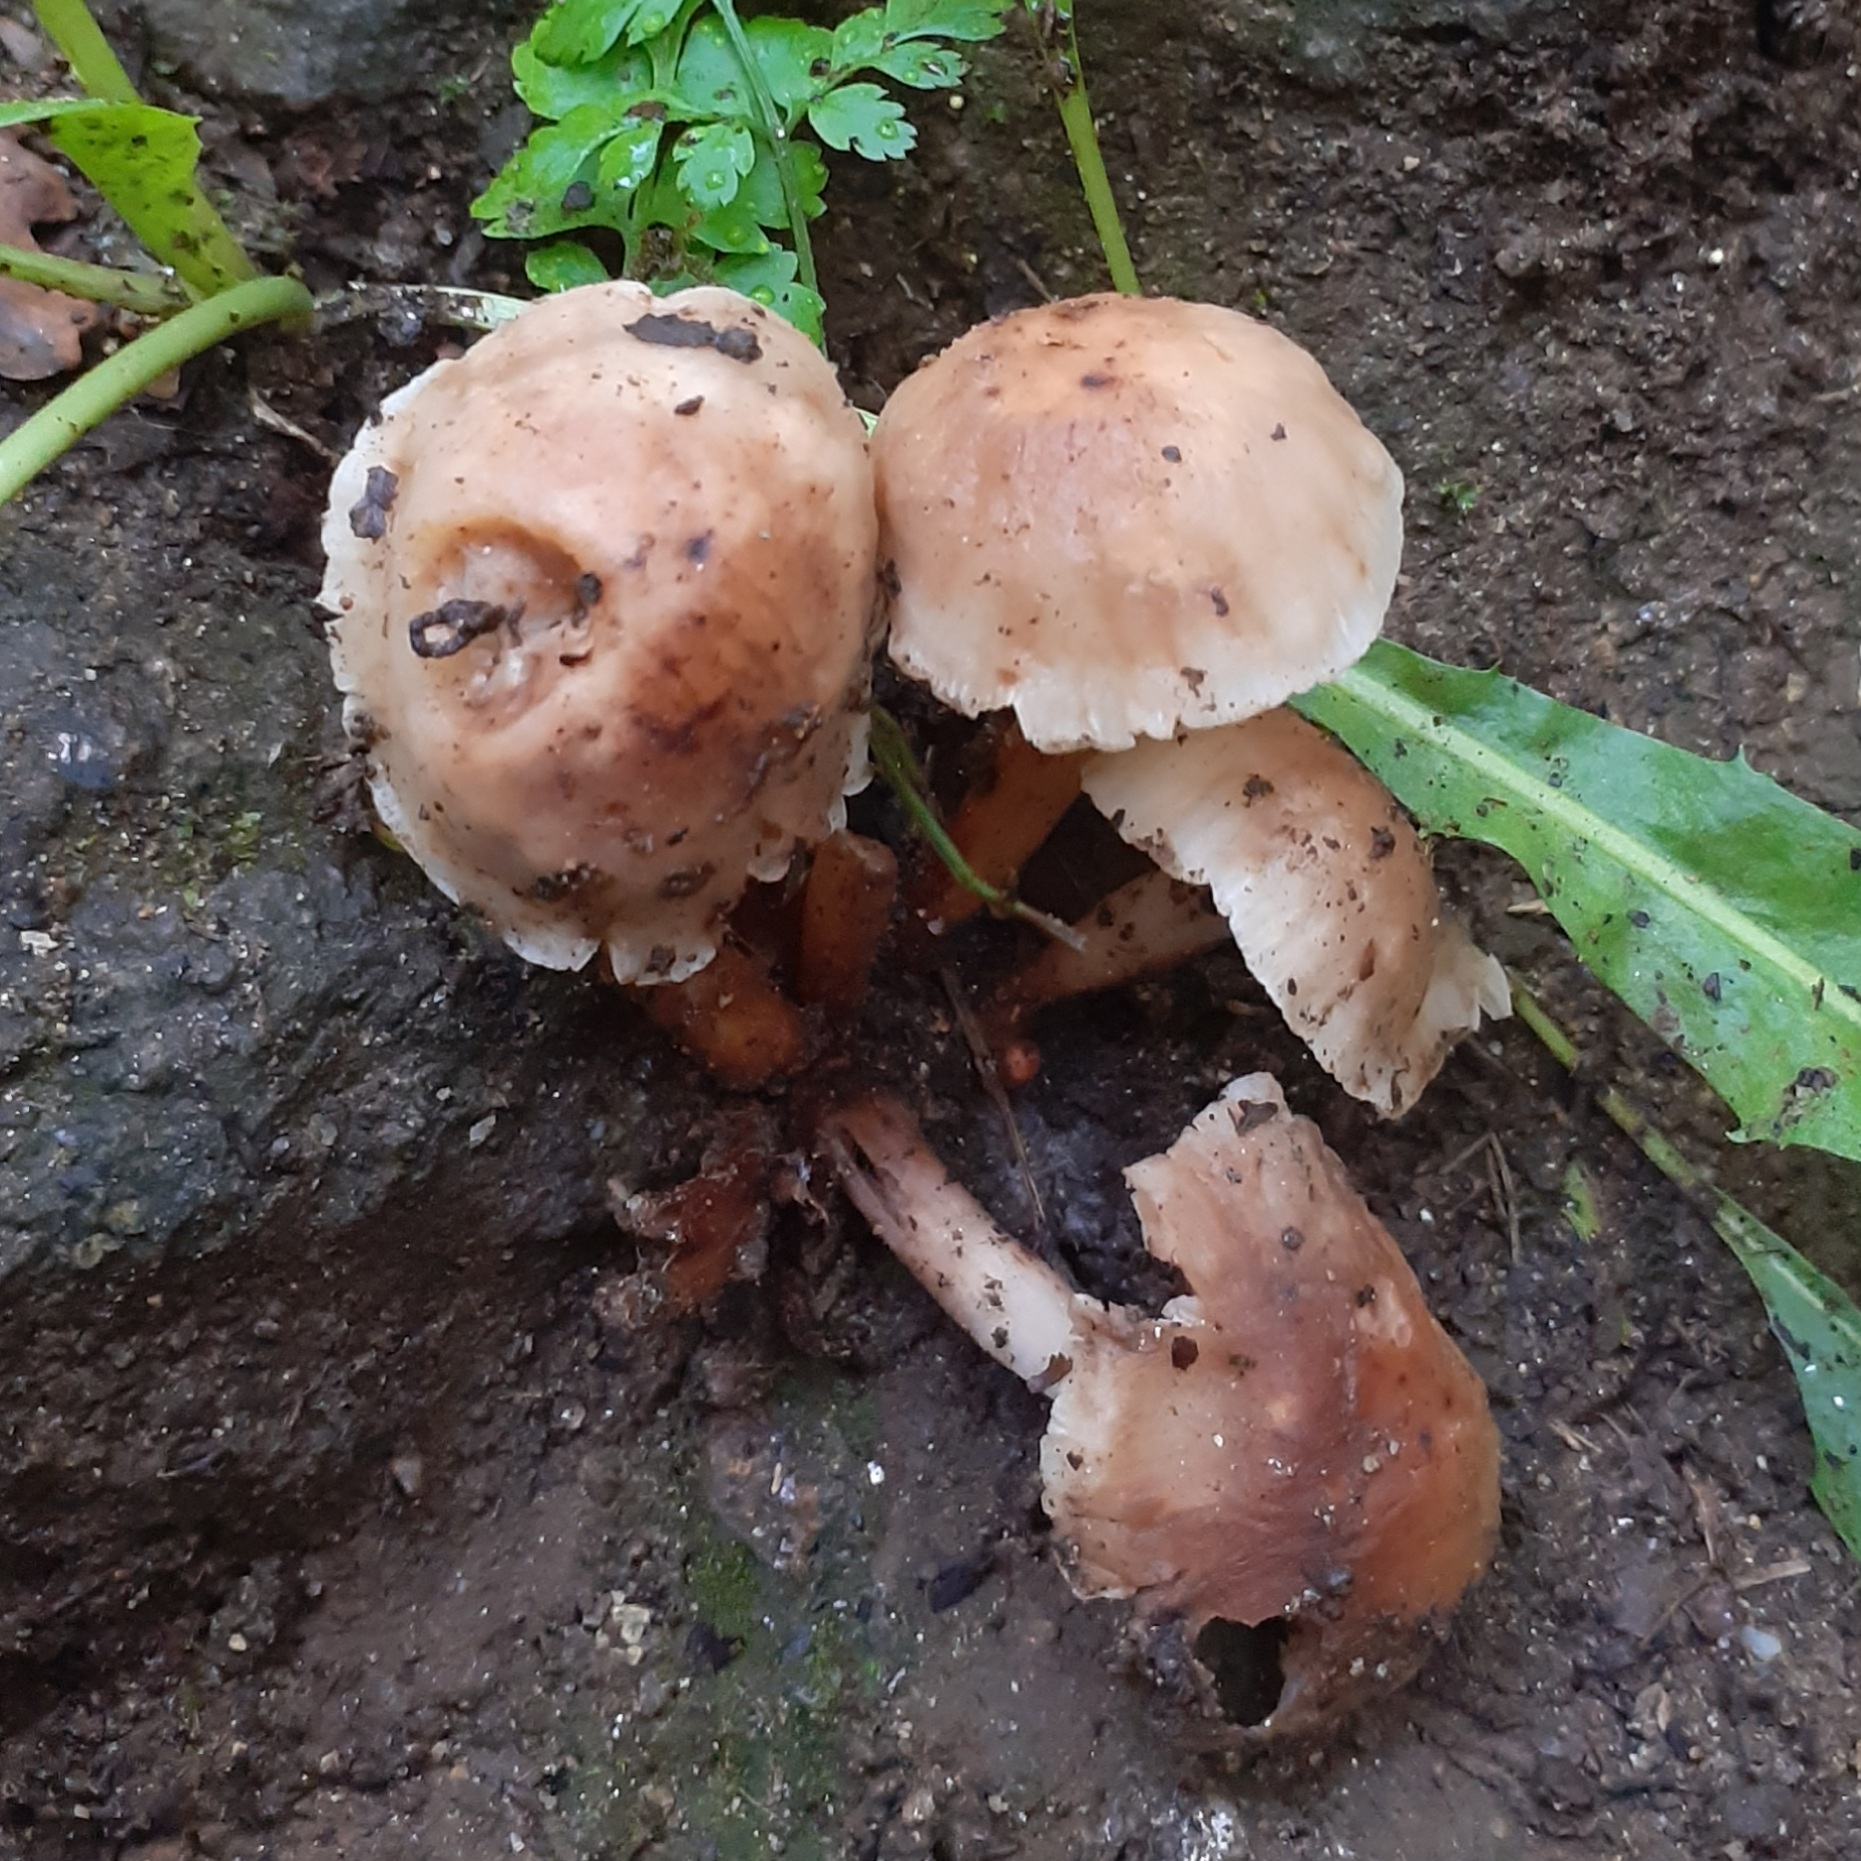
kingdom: Fungi
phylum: Basidiomycota
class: Agaricomycetes
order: Agaricales
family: Omphalotaceae
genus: Gymnopus
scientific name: Gymnopus fusipes
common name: Spindle shank
